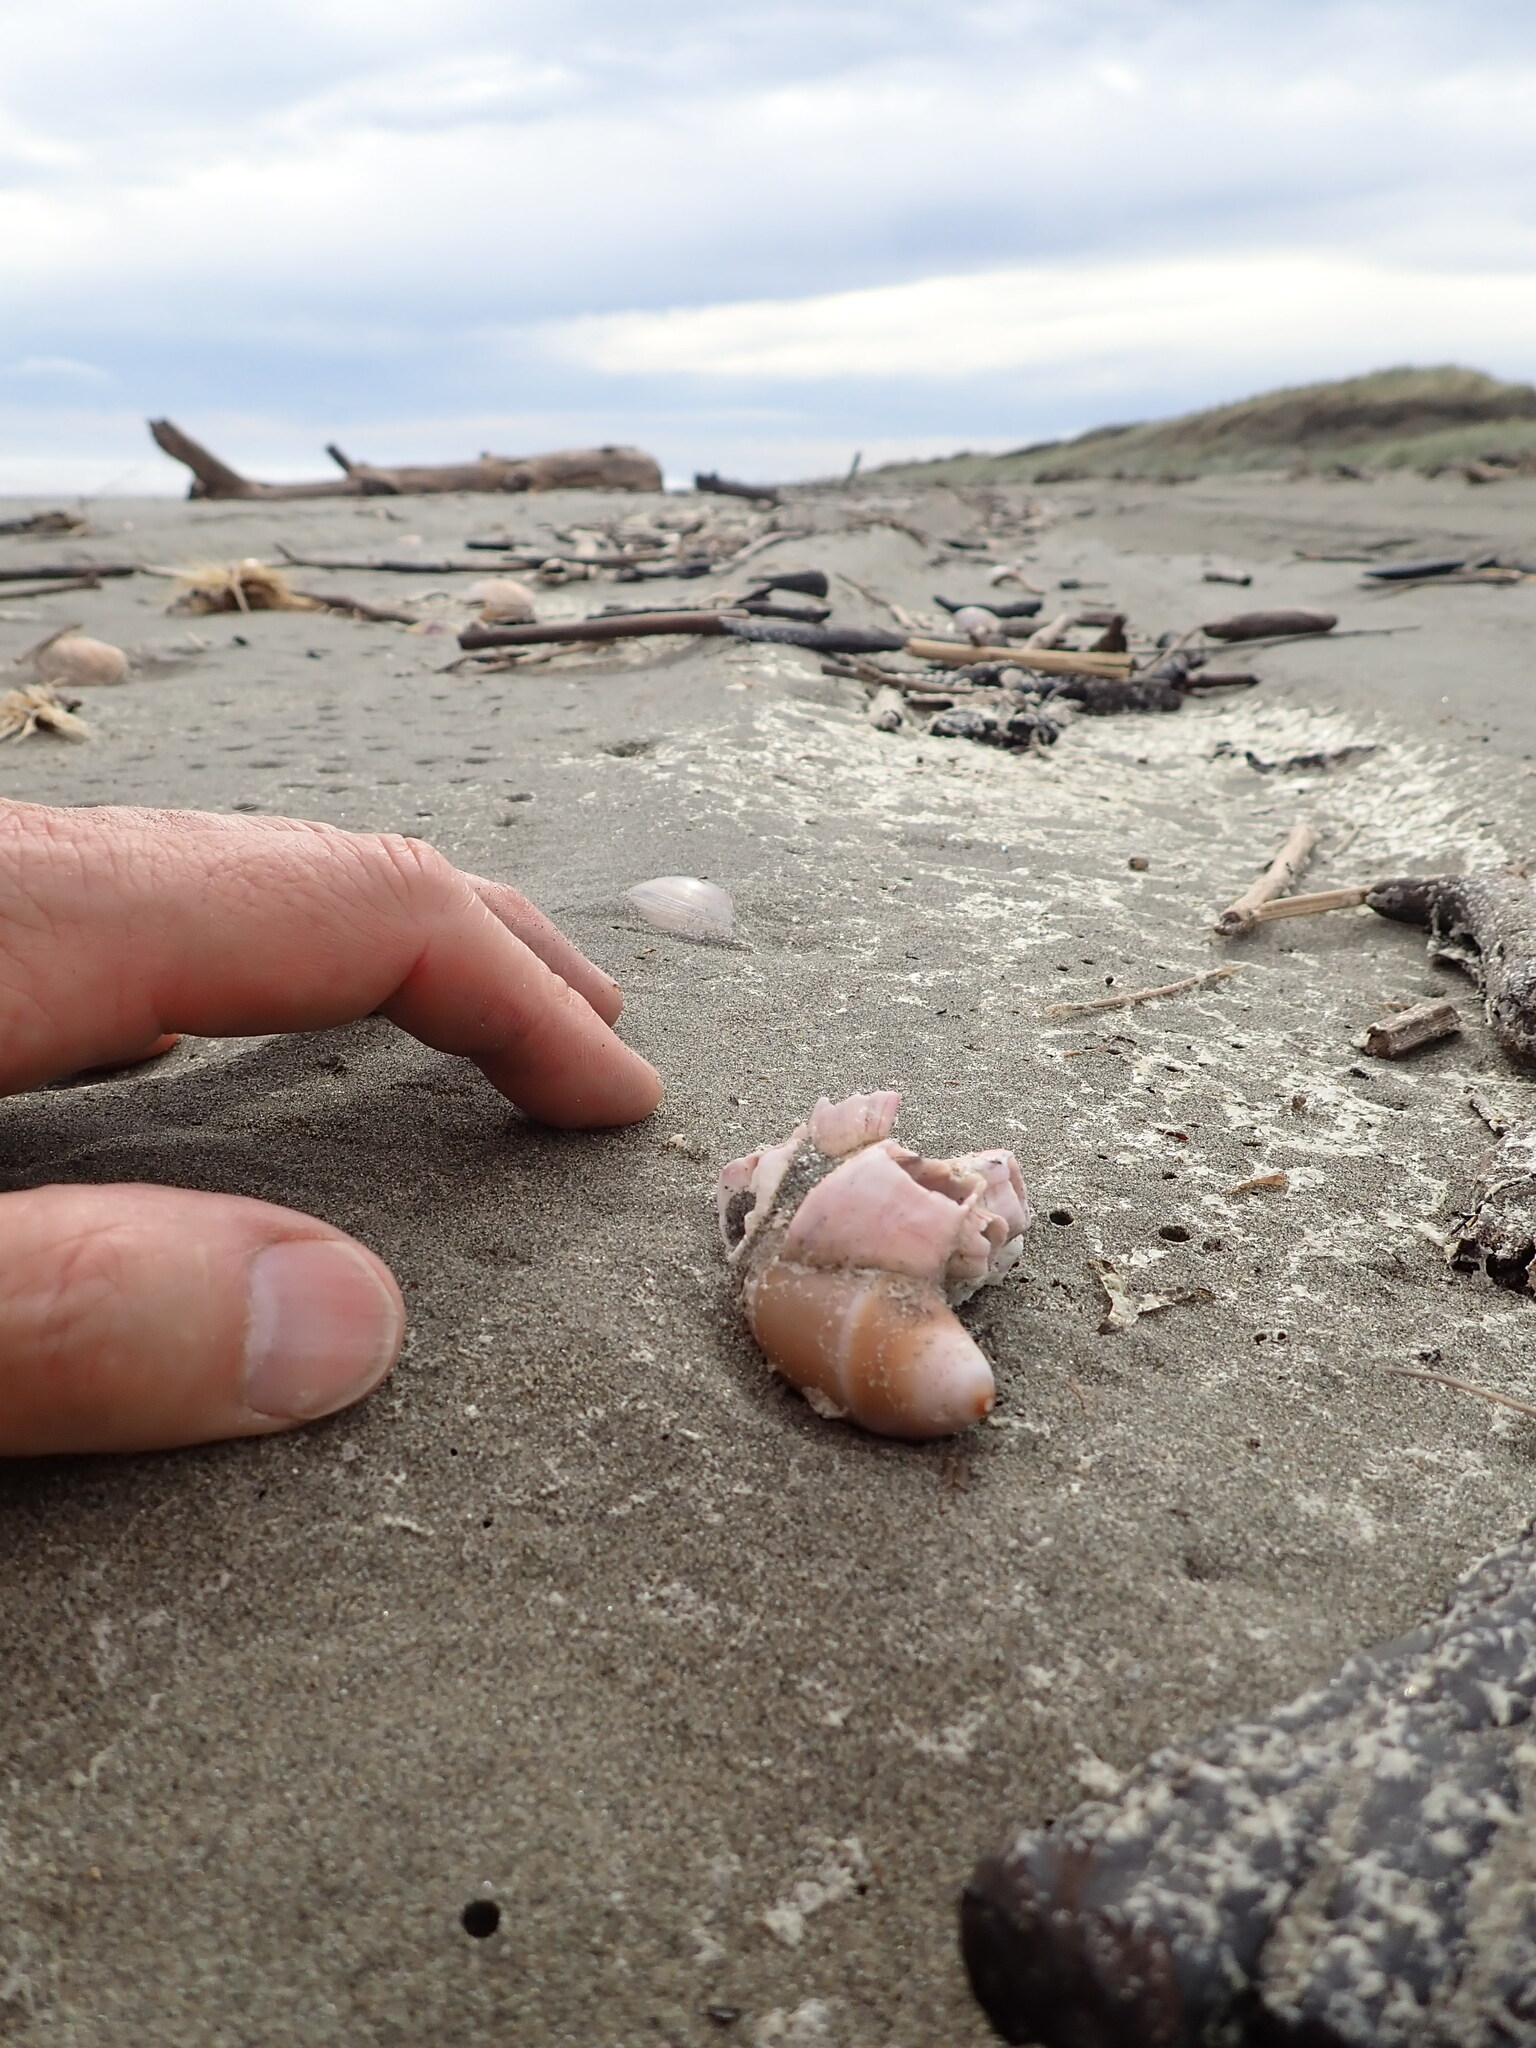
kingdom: Animalia
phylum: Mollusca
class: Gastropoda
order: Neogastropoda
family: Ancillariidae
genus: Amalda
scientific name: Amalda mucronata
